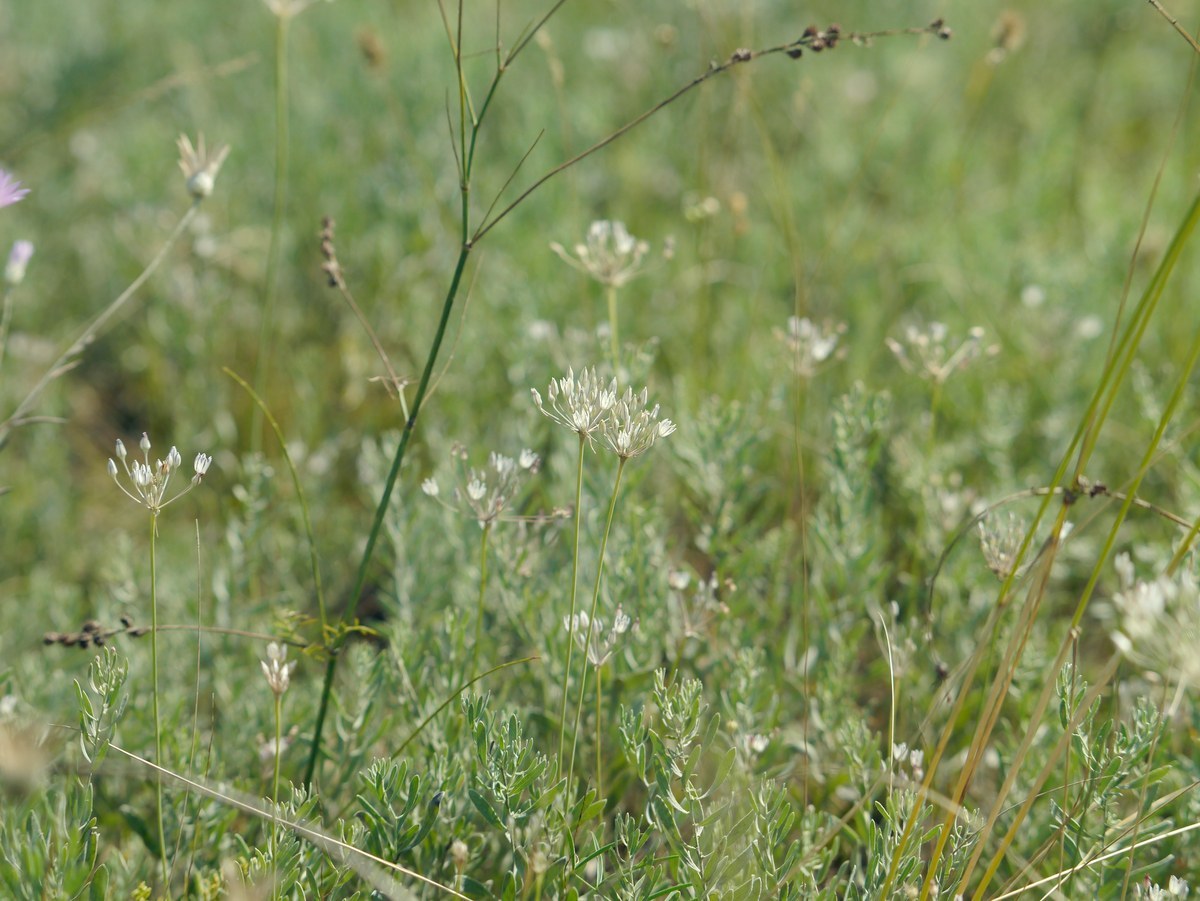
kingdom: Plantae
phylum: Tracheophyta
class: Liliopsida
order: Asparagales
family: Amaryllidaceae
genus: Allium
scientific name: Allium inaequale
